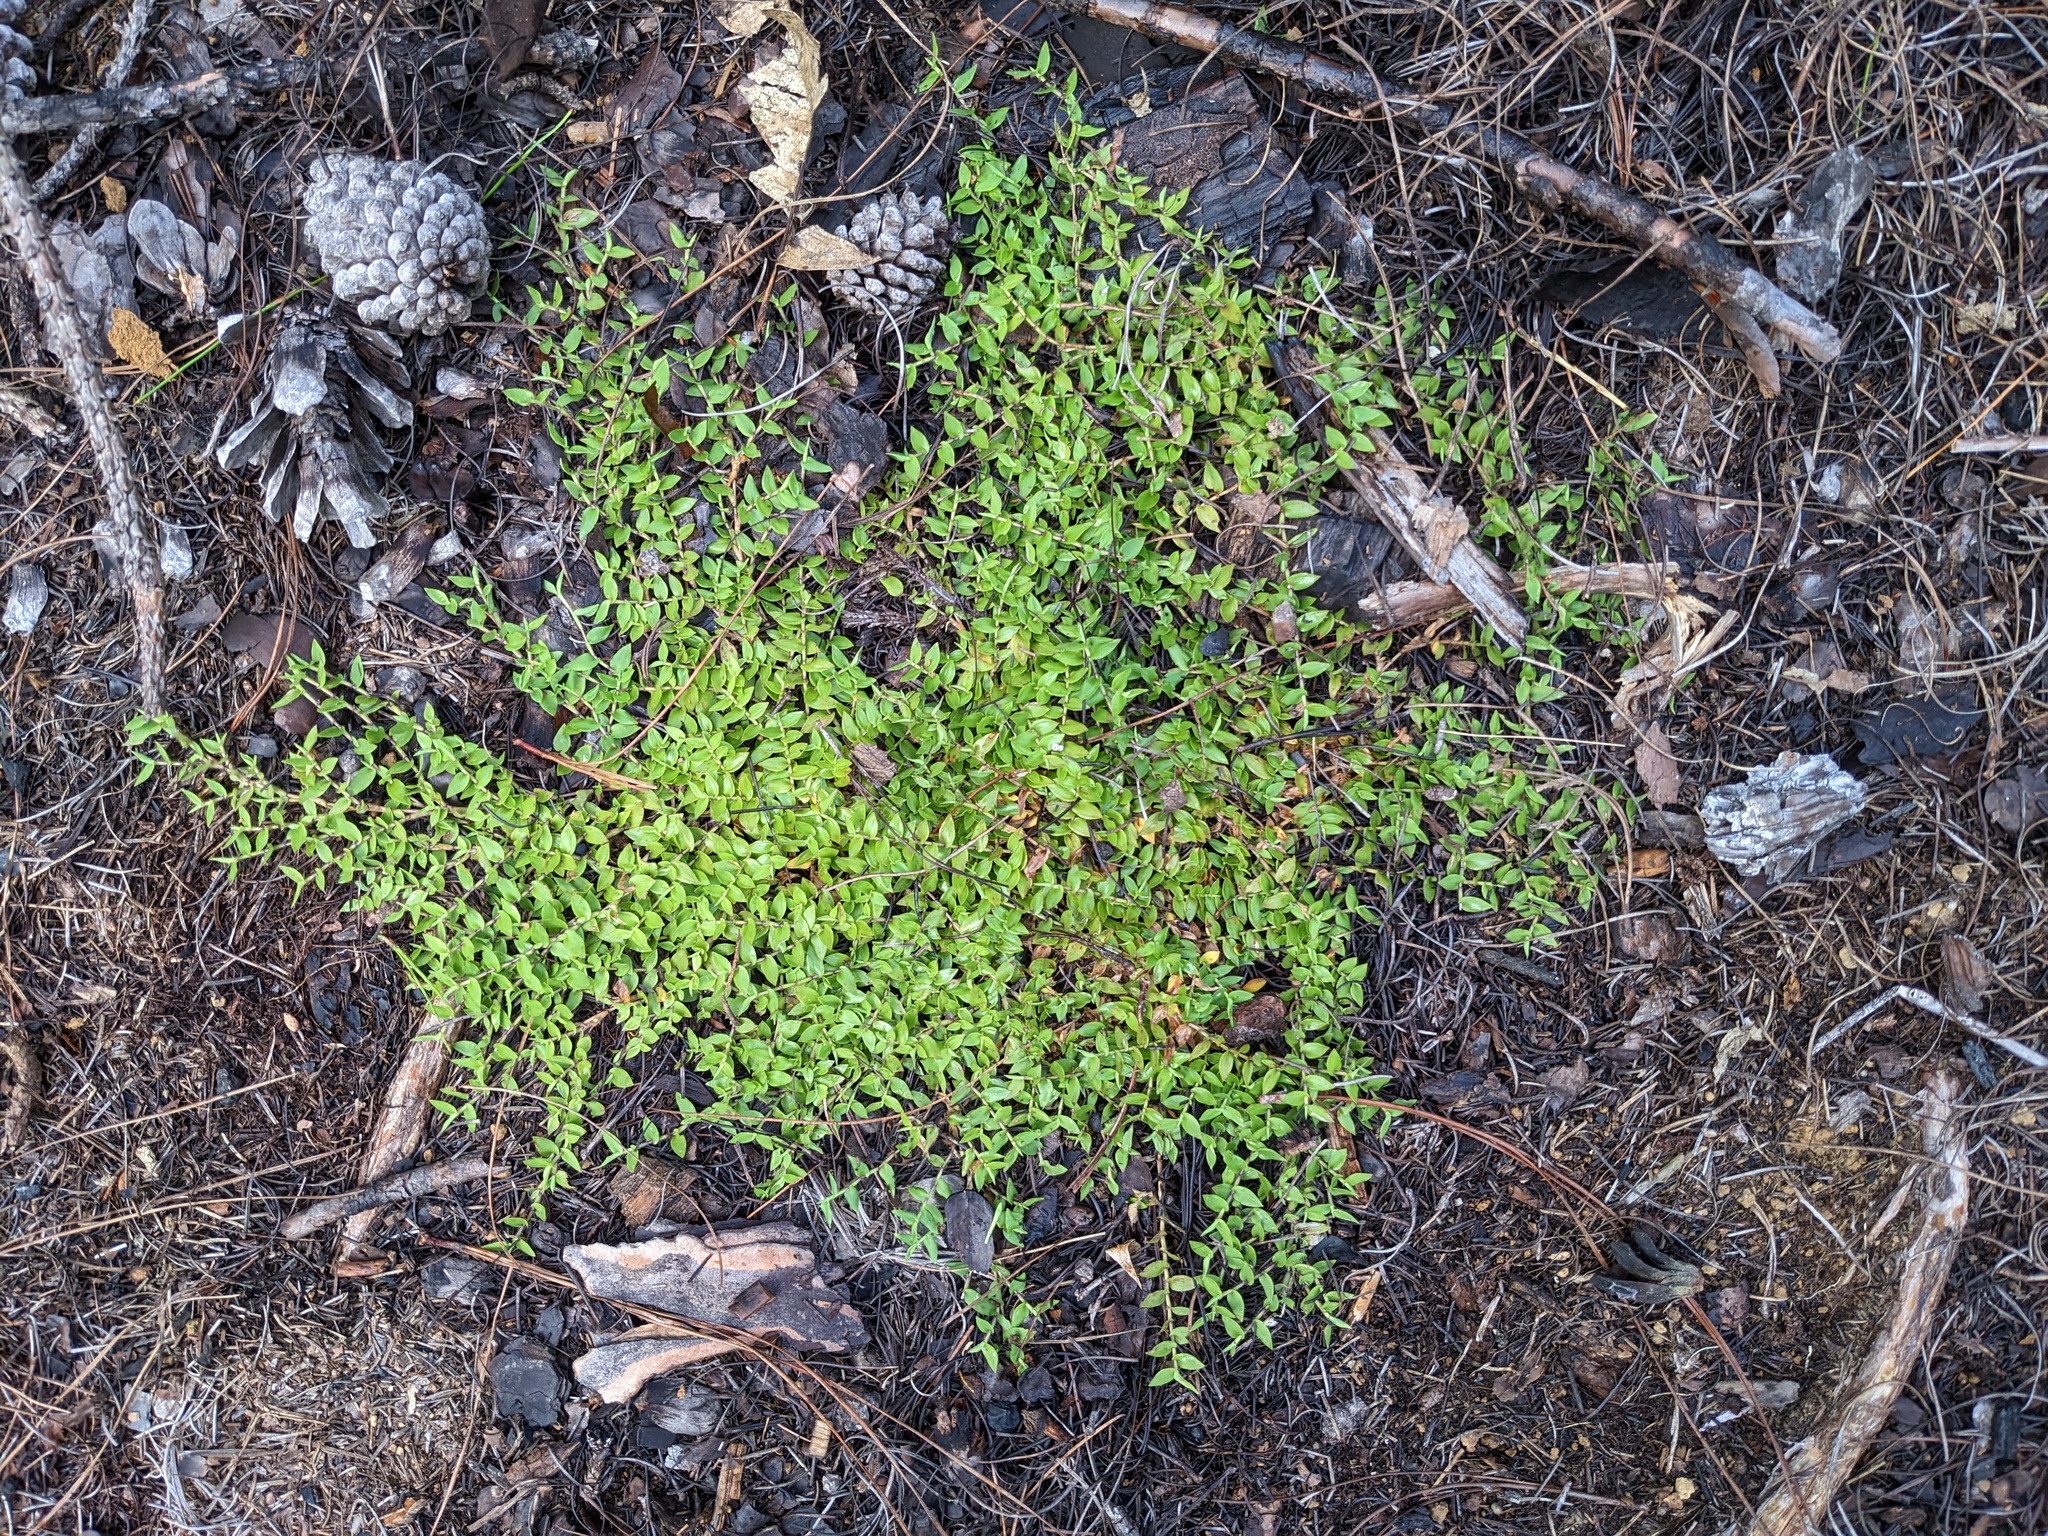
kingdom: Plantae
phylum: Tracheophyta
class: Liliopsida
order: Poales
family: Poaceae
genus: Urochloa
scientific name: Urochloa Brachiaria epacridifolia
